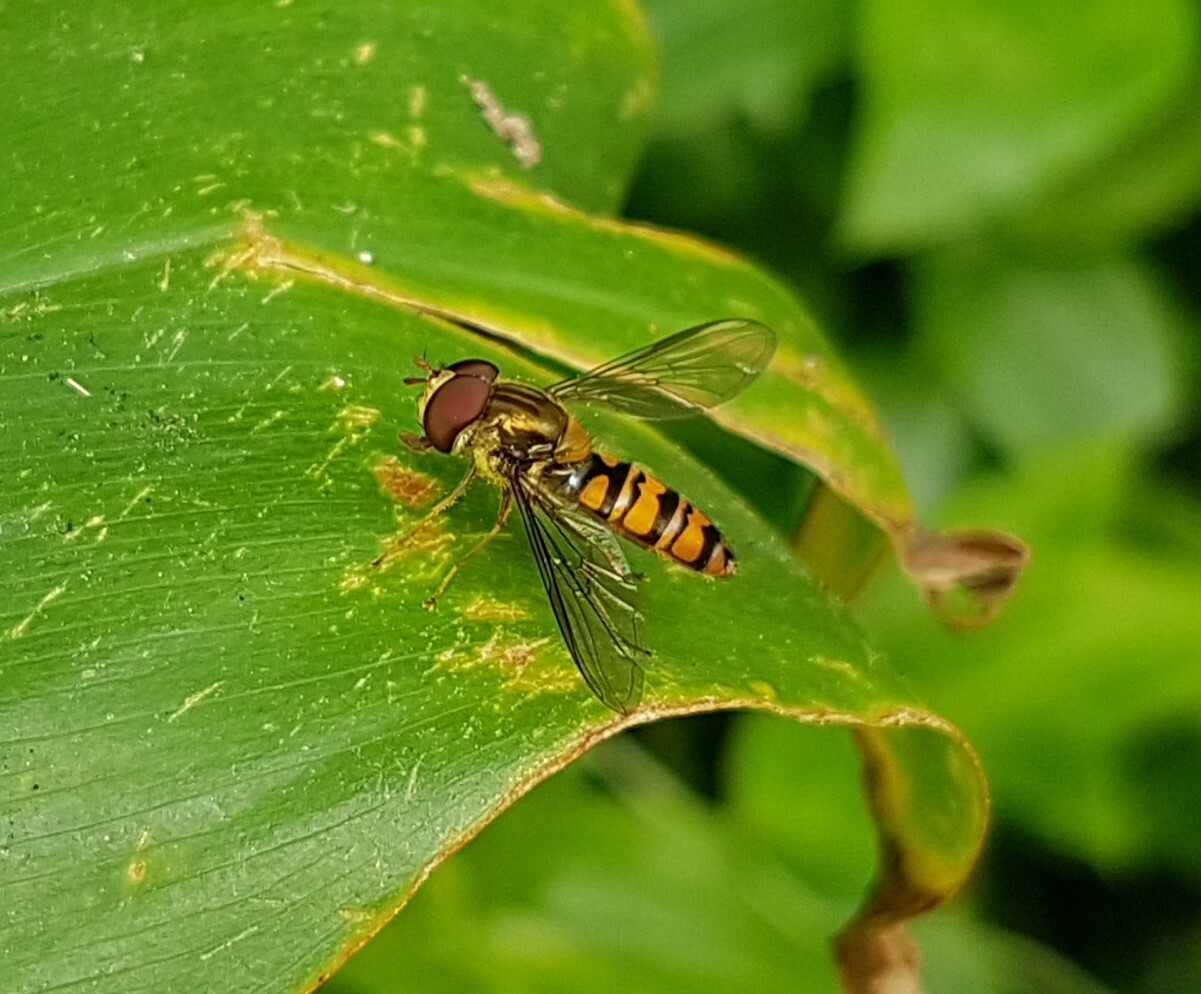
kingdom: Animalia
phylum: Arthropoda
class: Insecta
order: Diptera
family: Syrphidae
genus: Episyrphus
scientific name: Episyrphus balteatus
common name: Marmalade hoverfly
